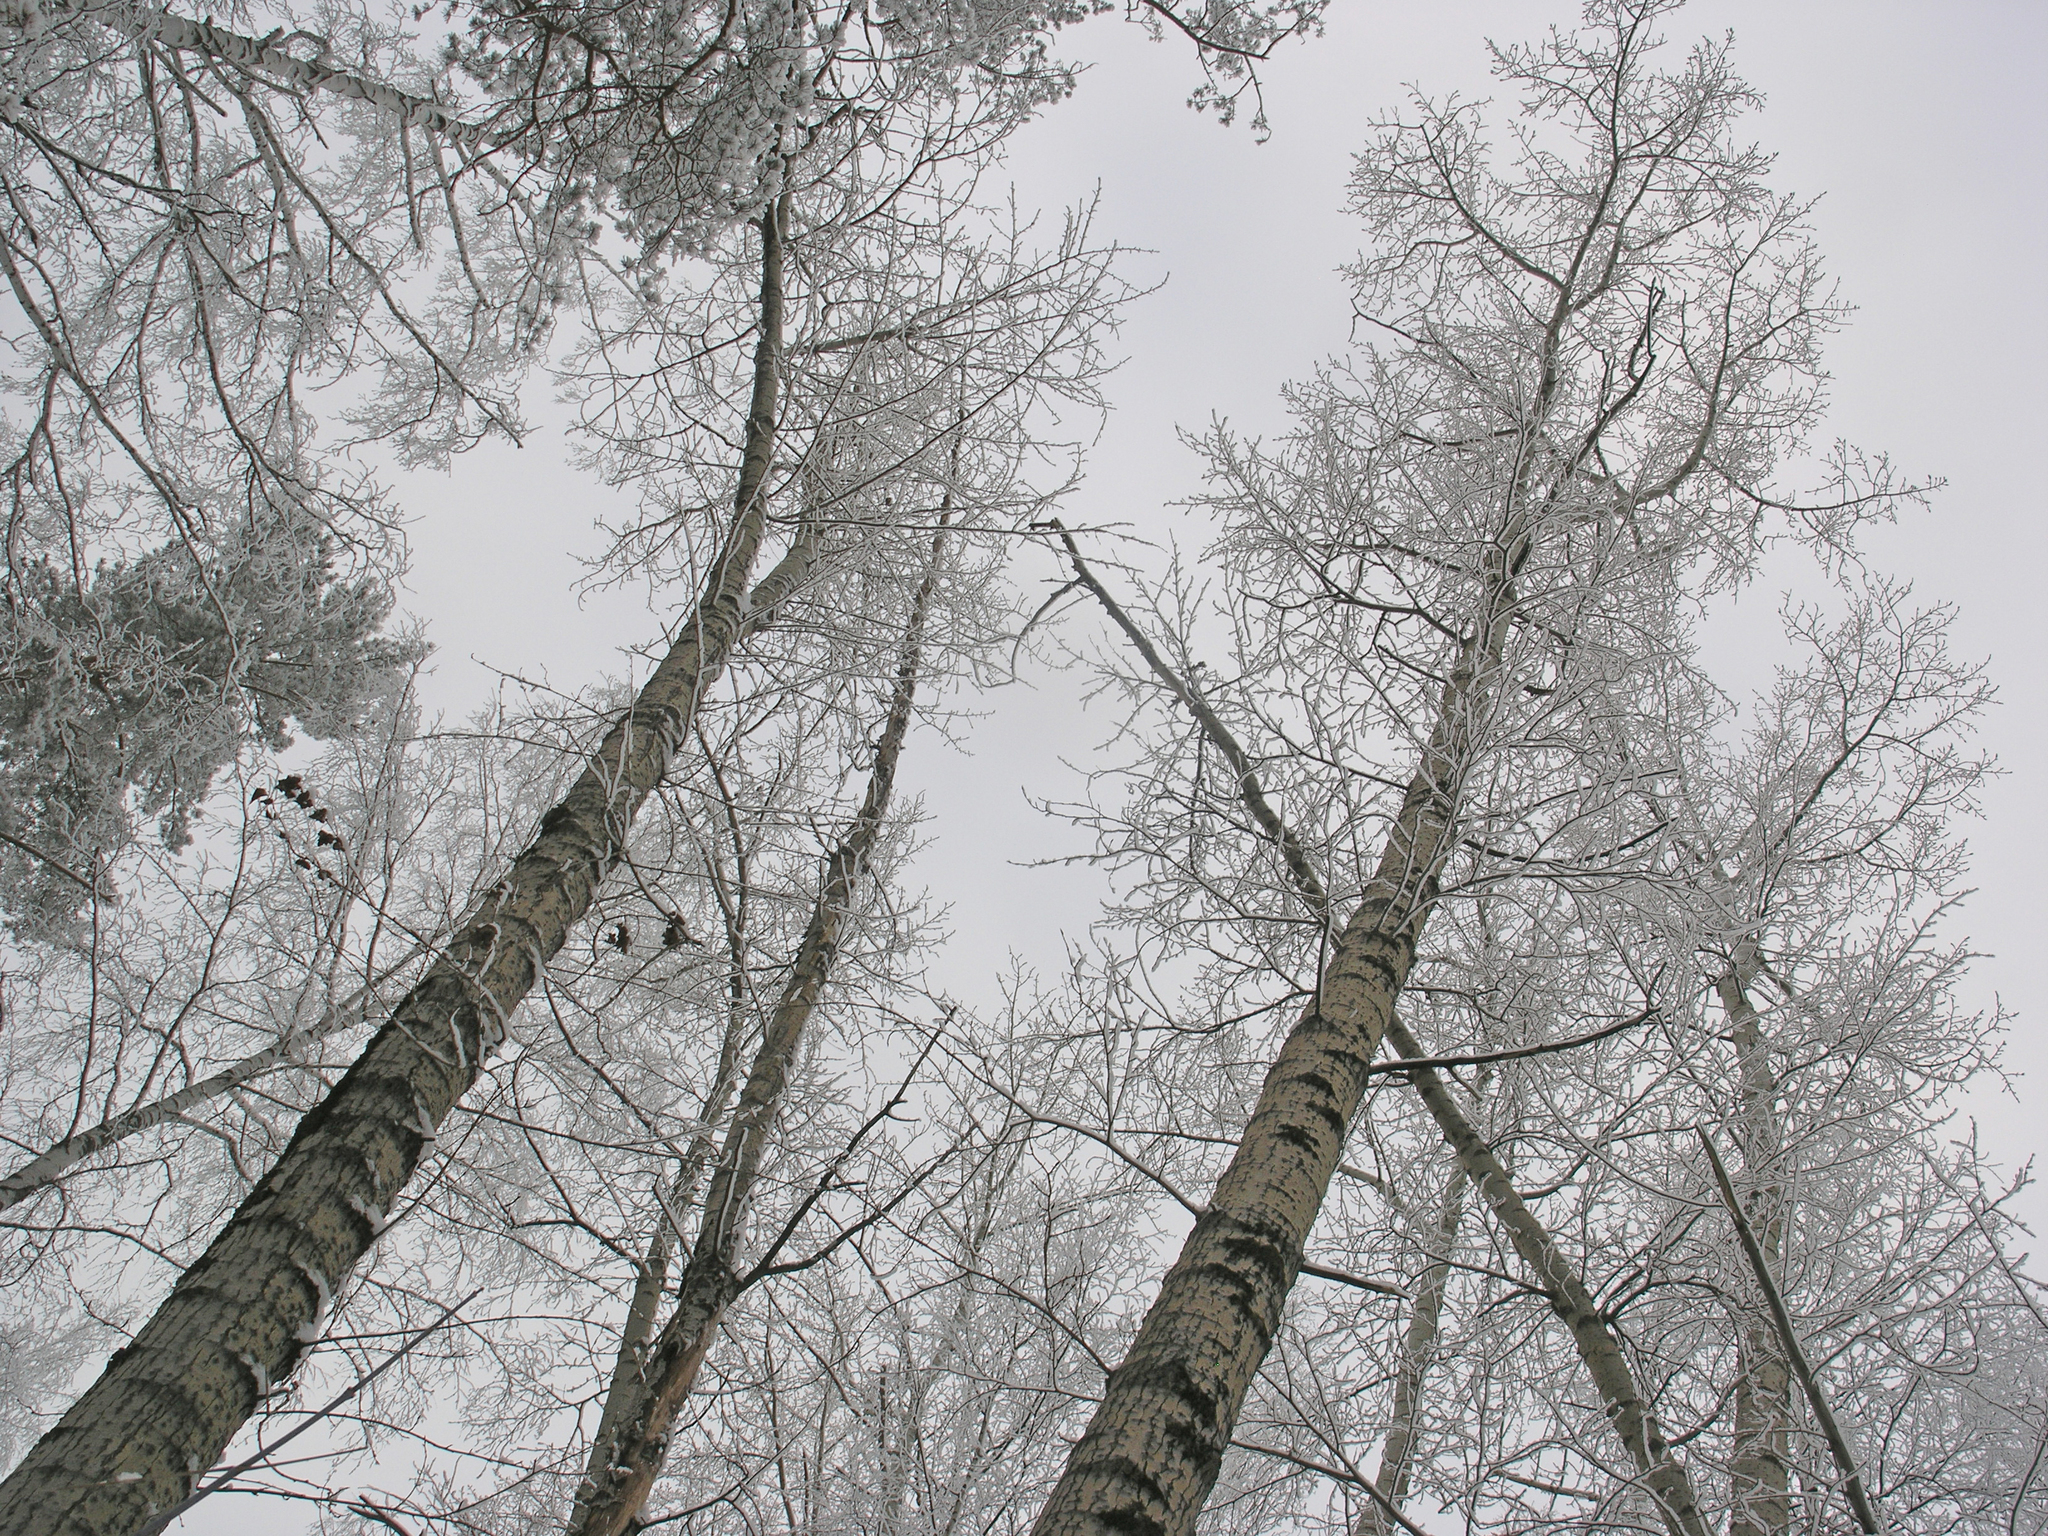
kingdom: Plantae
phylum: Tracheophyta
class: Magnoliopsida
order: Malpighiales
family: Salicaceae
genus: Populus
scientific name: Populus tremula
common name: European aspen
